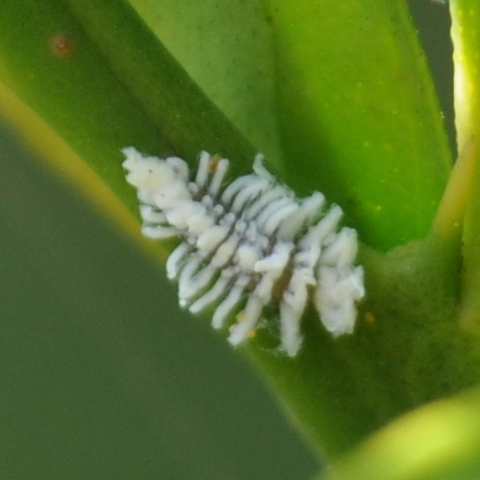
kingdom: Animalia
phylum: Arthropoda
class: Insecta
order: Coleoptera
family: Coccinellidae
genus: Azya
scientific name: Azya luteipes
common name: Ladybird beetle
